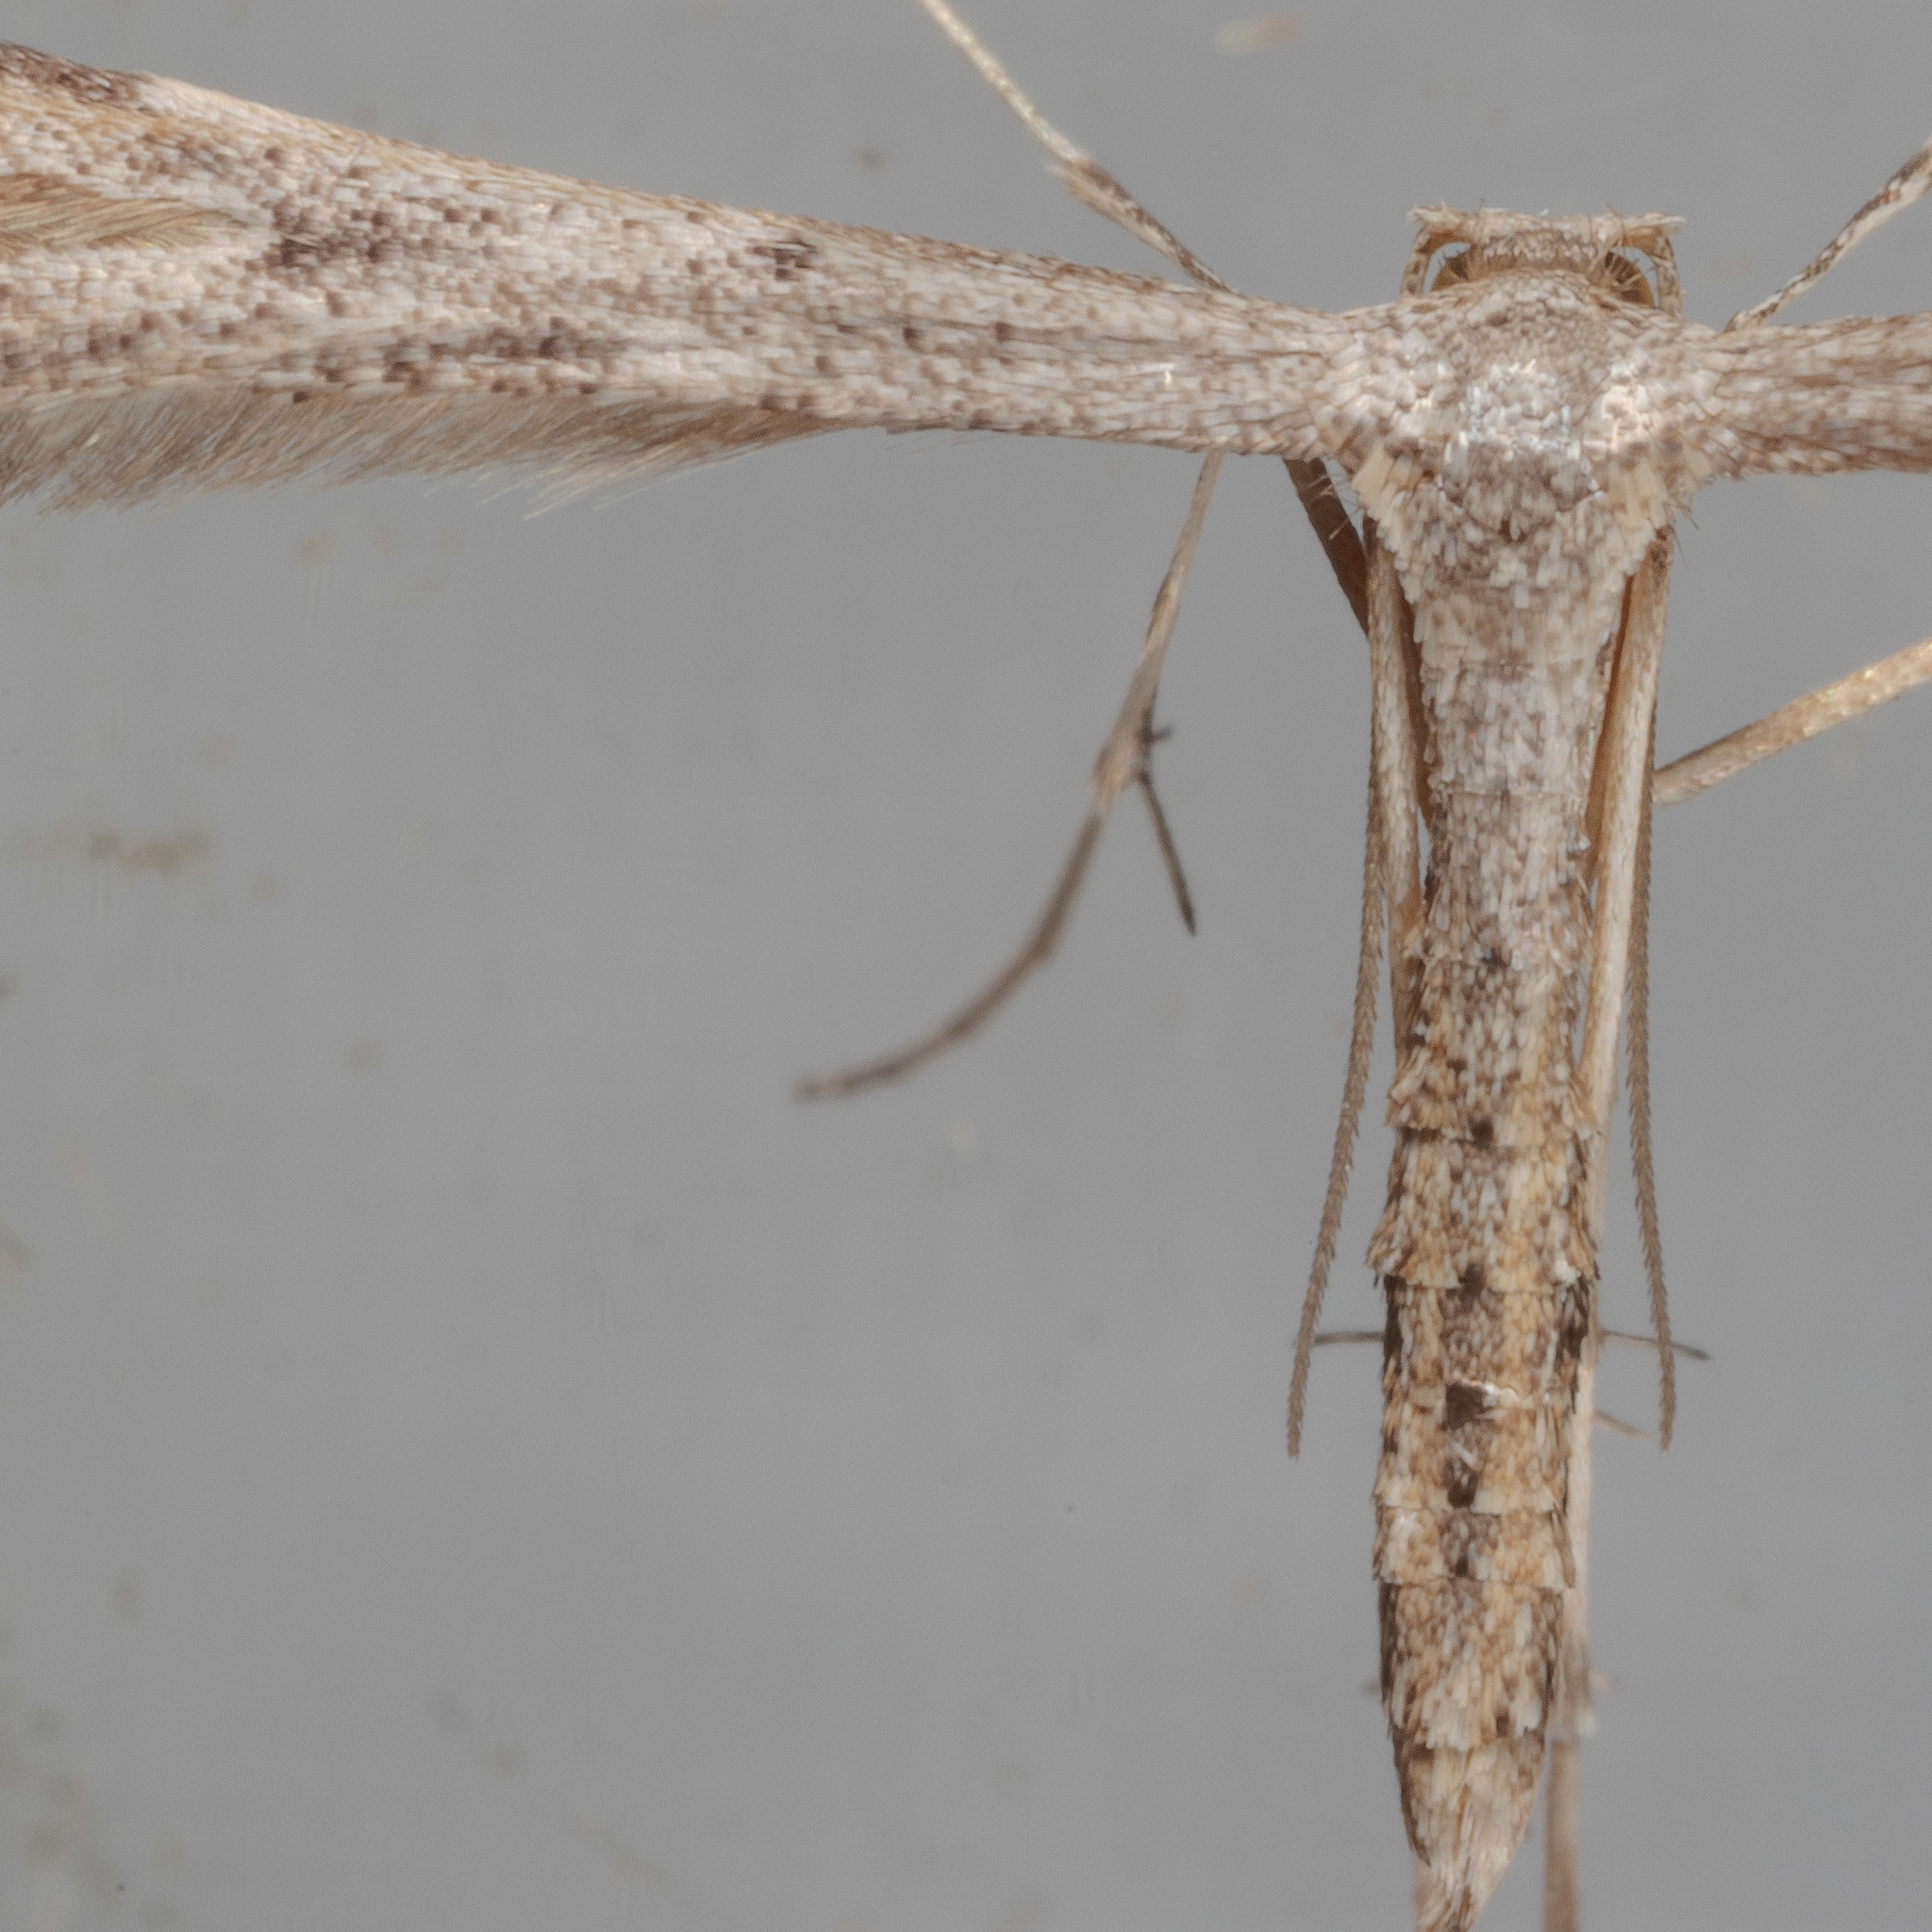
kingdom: Animalia
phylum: Arthropoda
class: Insecta
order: Lepidoptera
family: Pterophoridae
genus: Adaina
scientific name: Adaina ambrosiae
